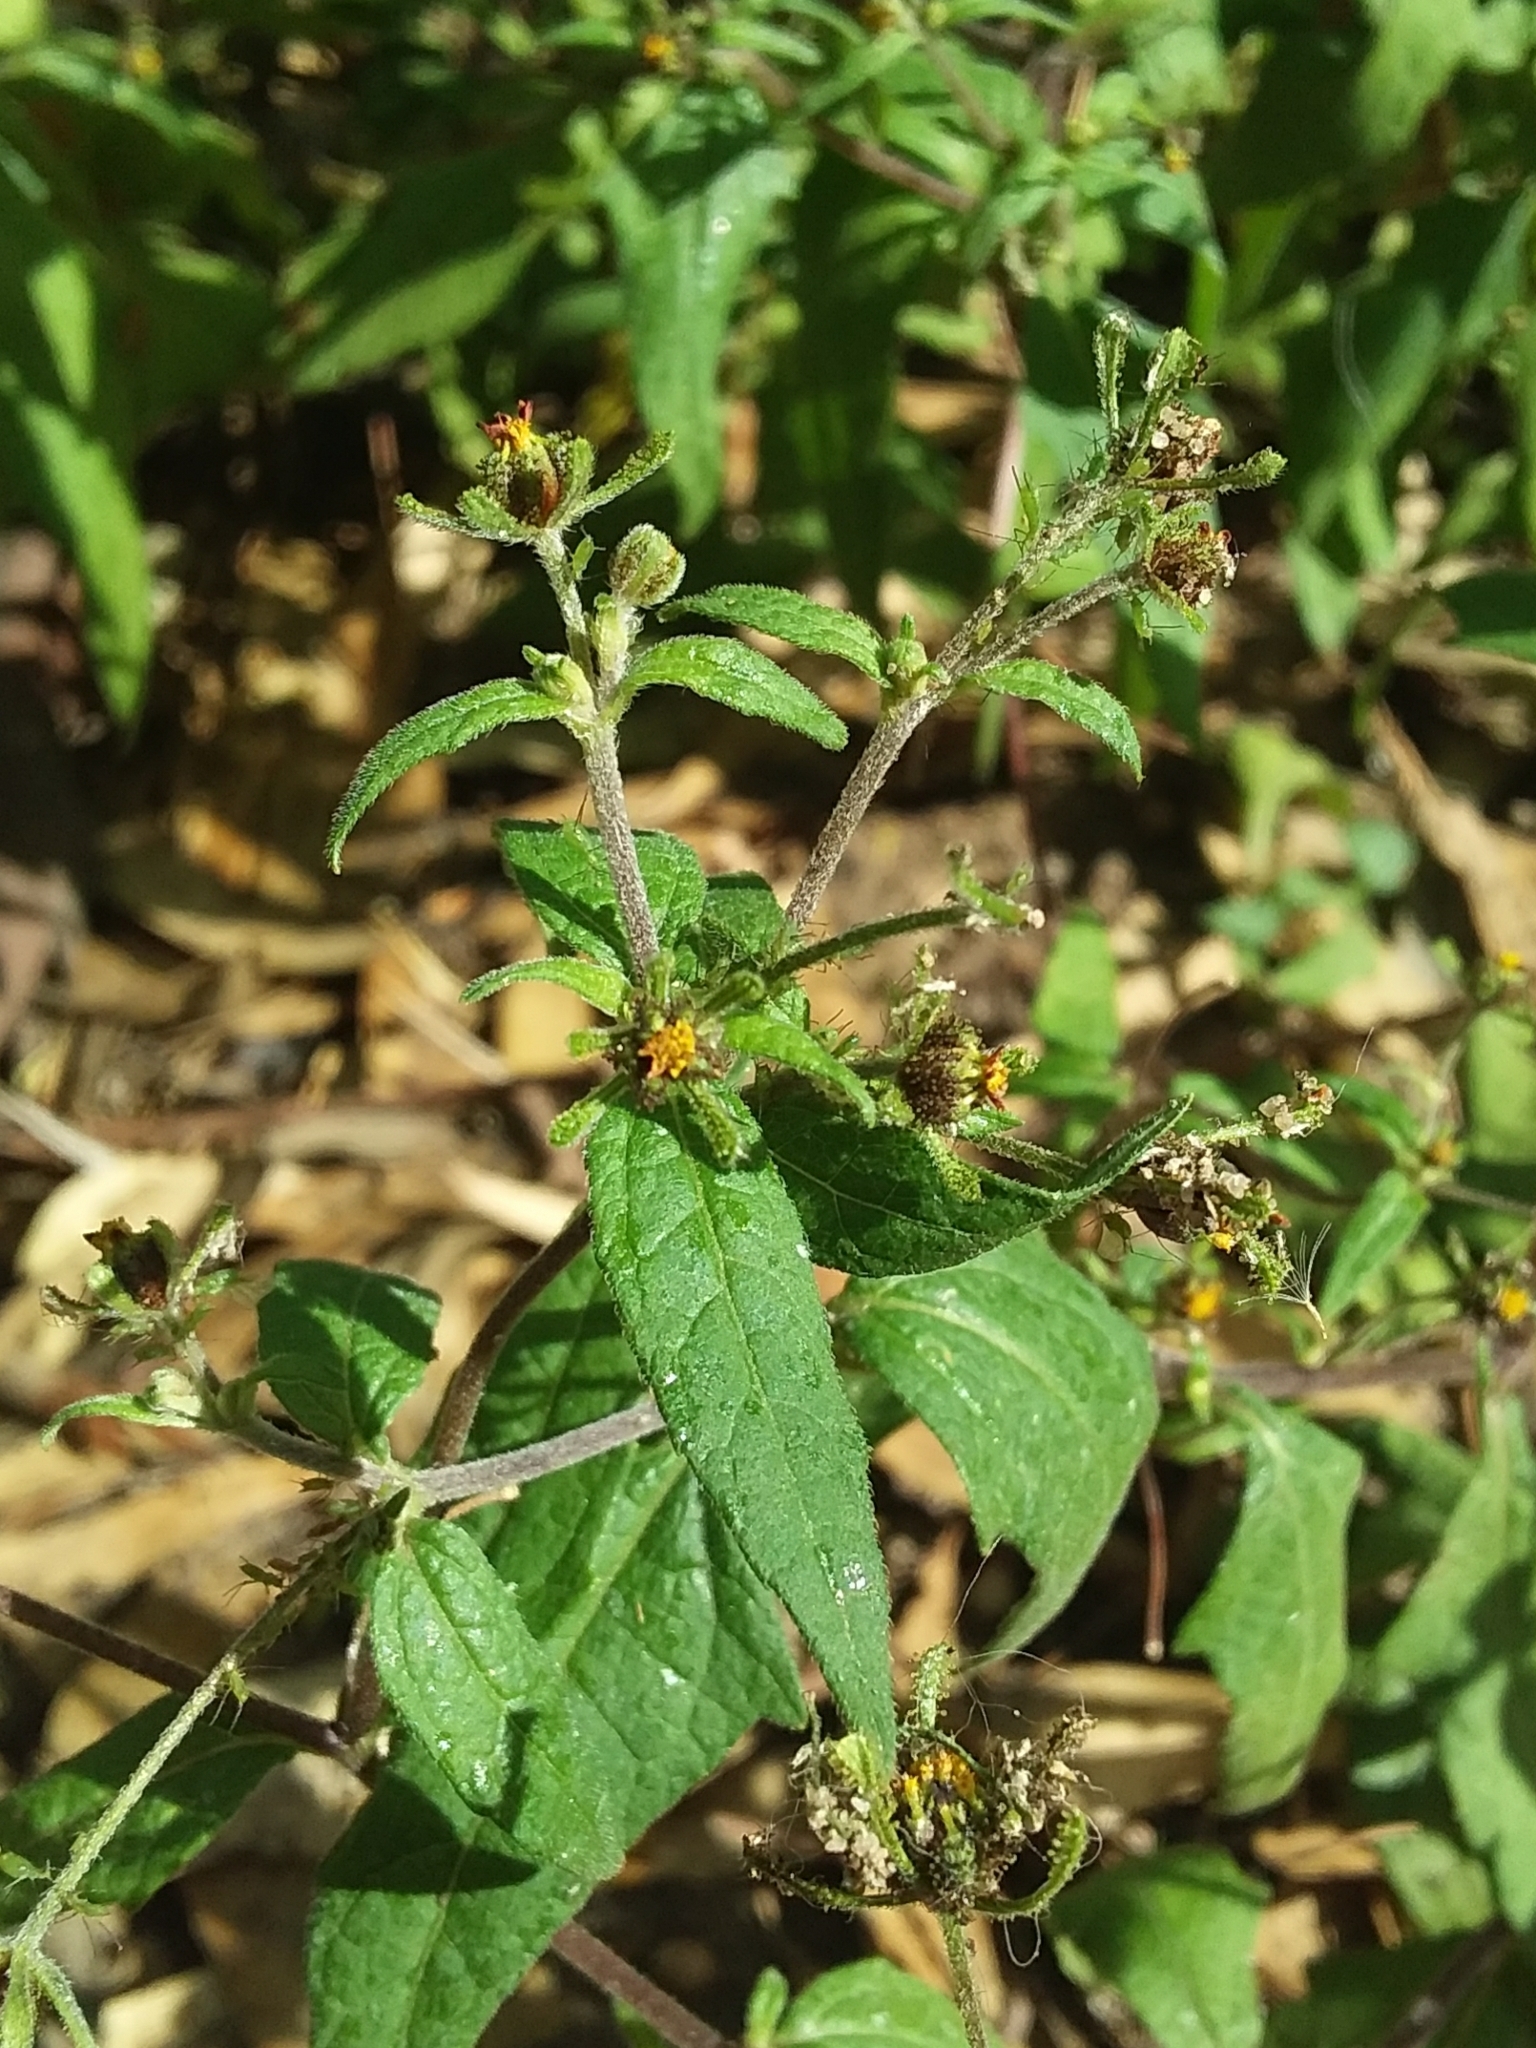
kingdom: Plantae
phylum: Tracheophyta
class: Magnoliopsida
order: Asterales
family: Asteraceae
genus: Sigesbeckia
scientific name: Sigesbeckia orientalis
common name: Eastern st paul's-wort
